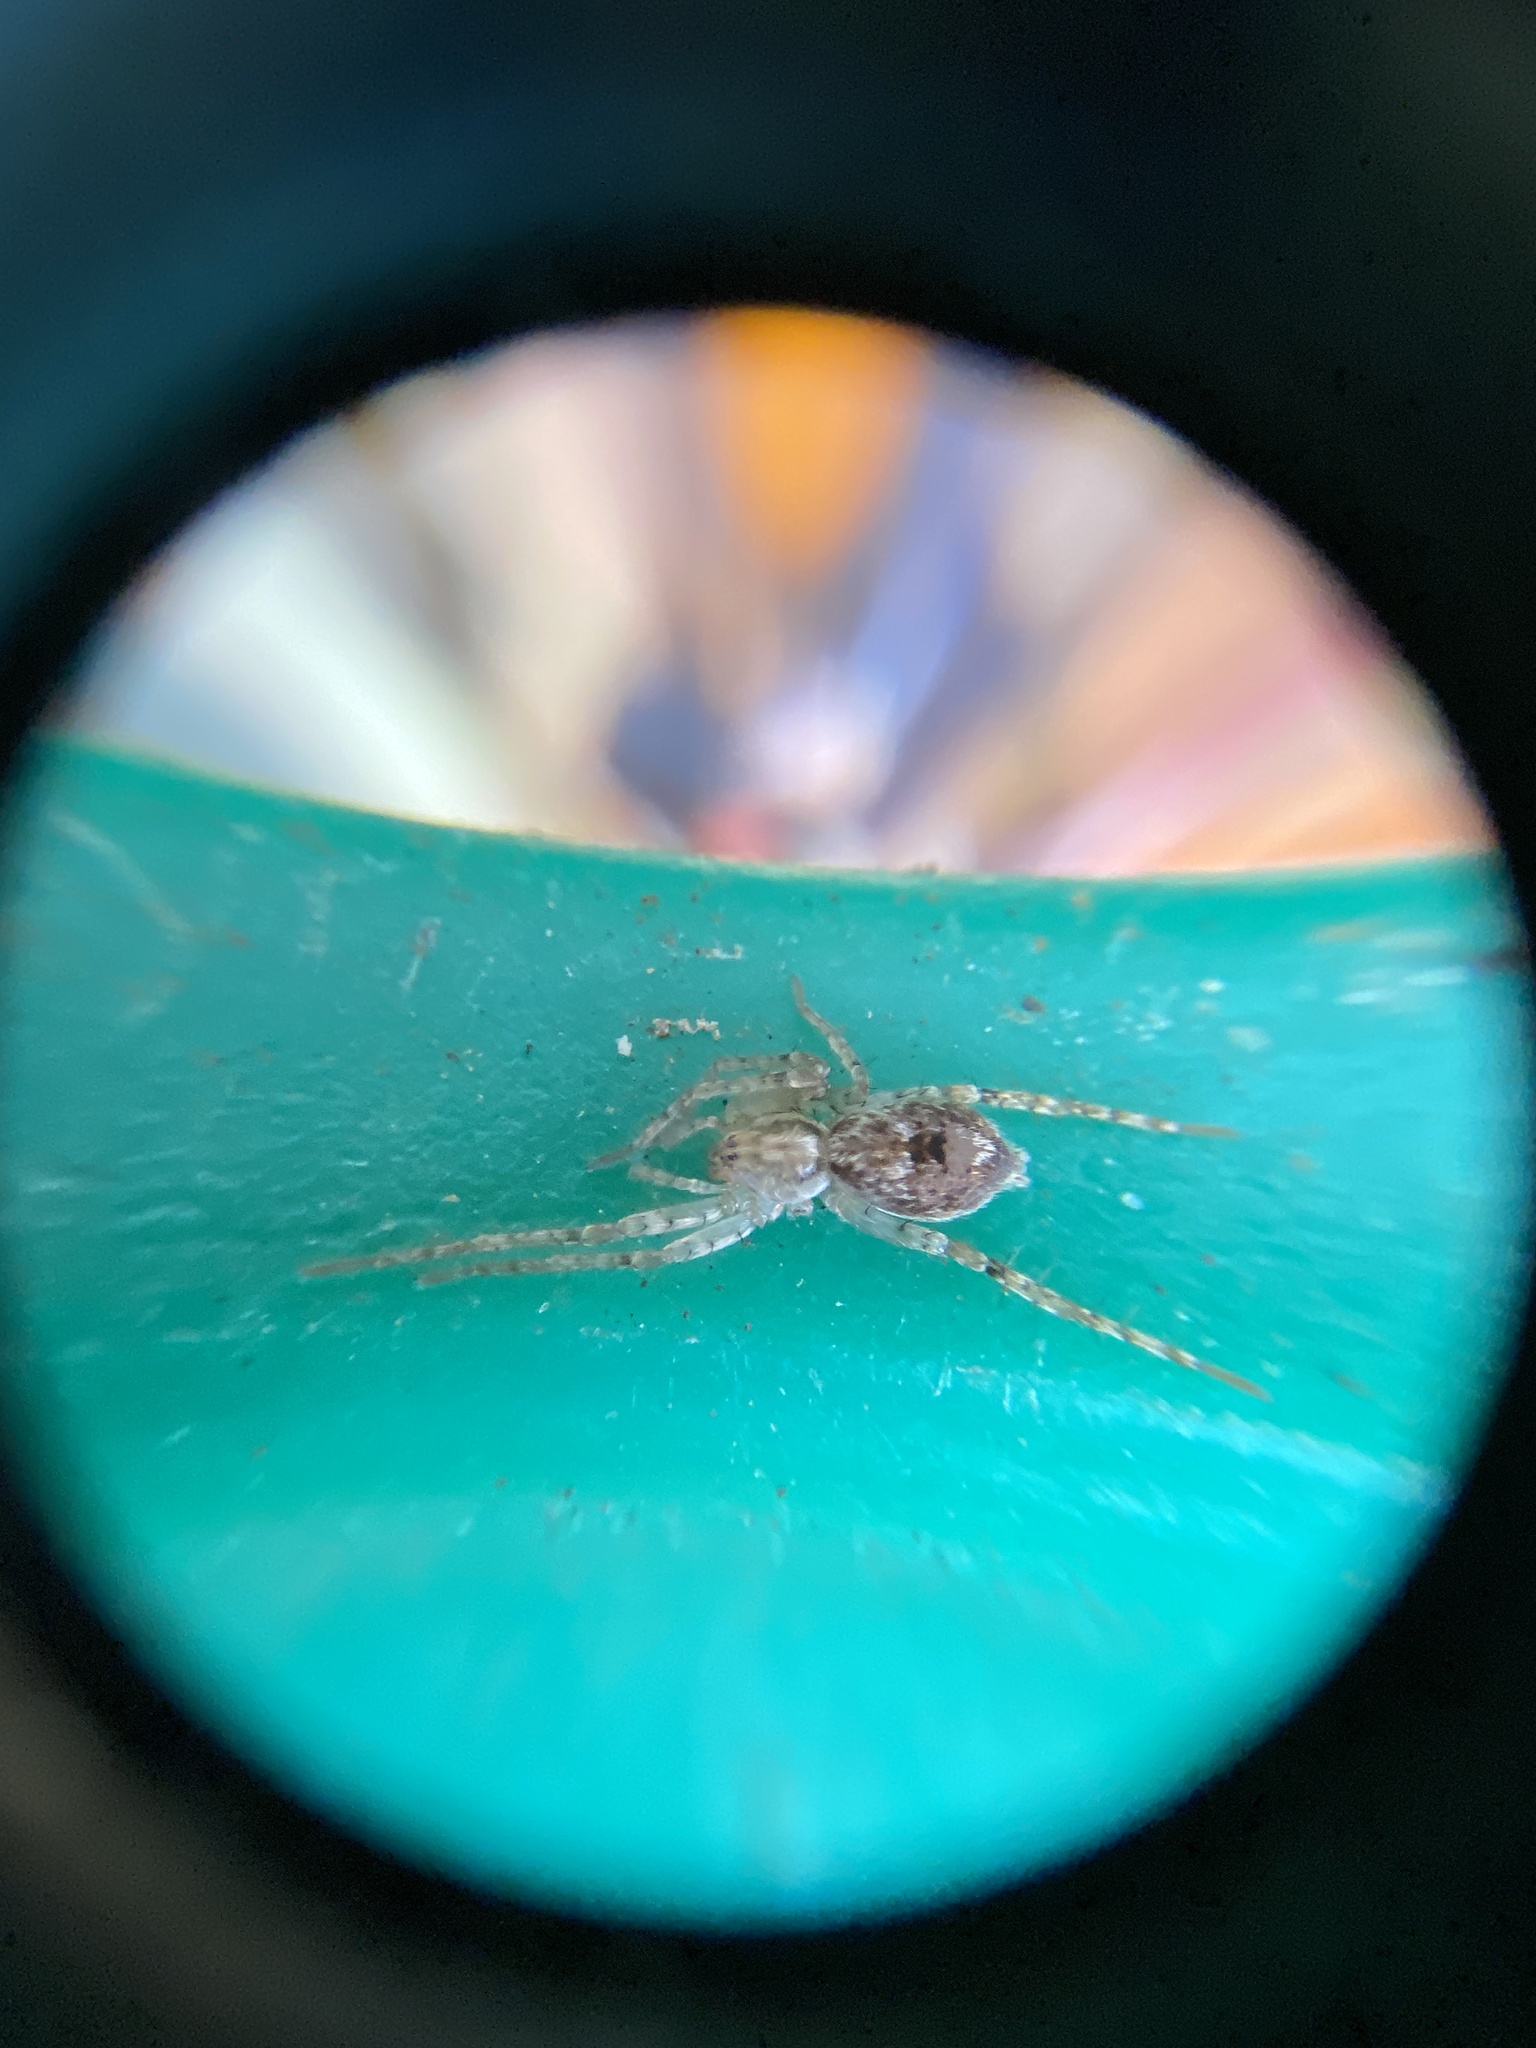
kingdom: Animalia
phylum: Arthropoda
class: Arachnida
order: Araneae
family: Anyphaenidae
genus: Anyphaena
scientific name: Anyphaena accentuata
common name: Buzzing spider
